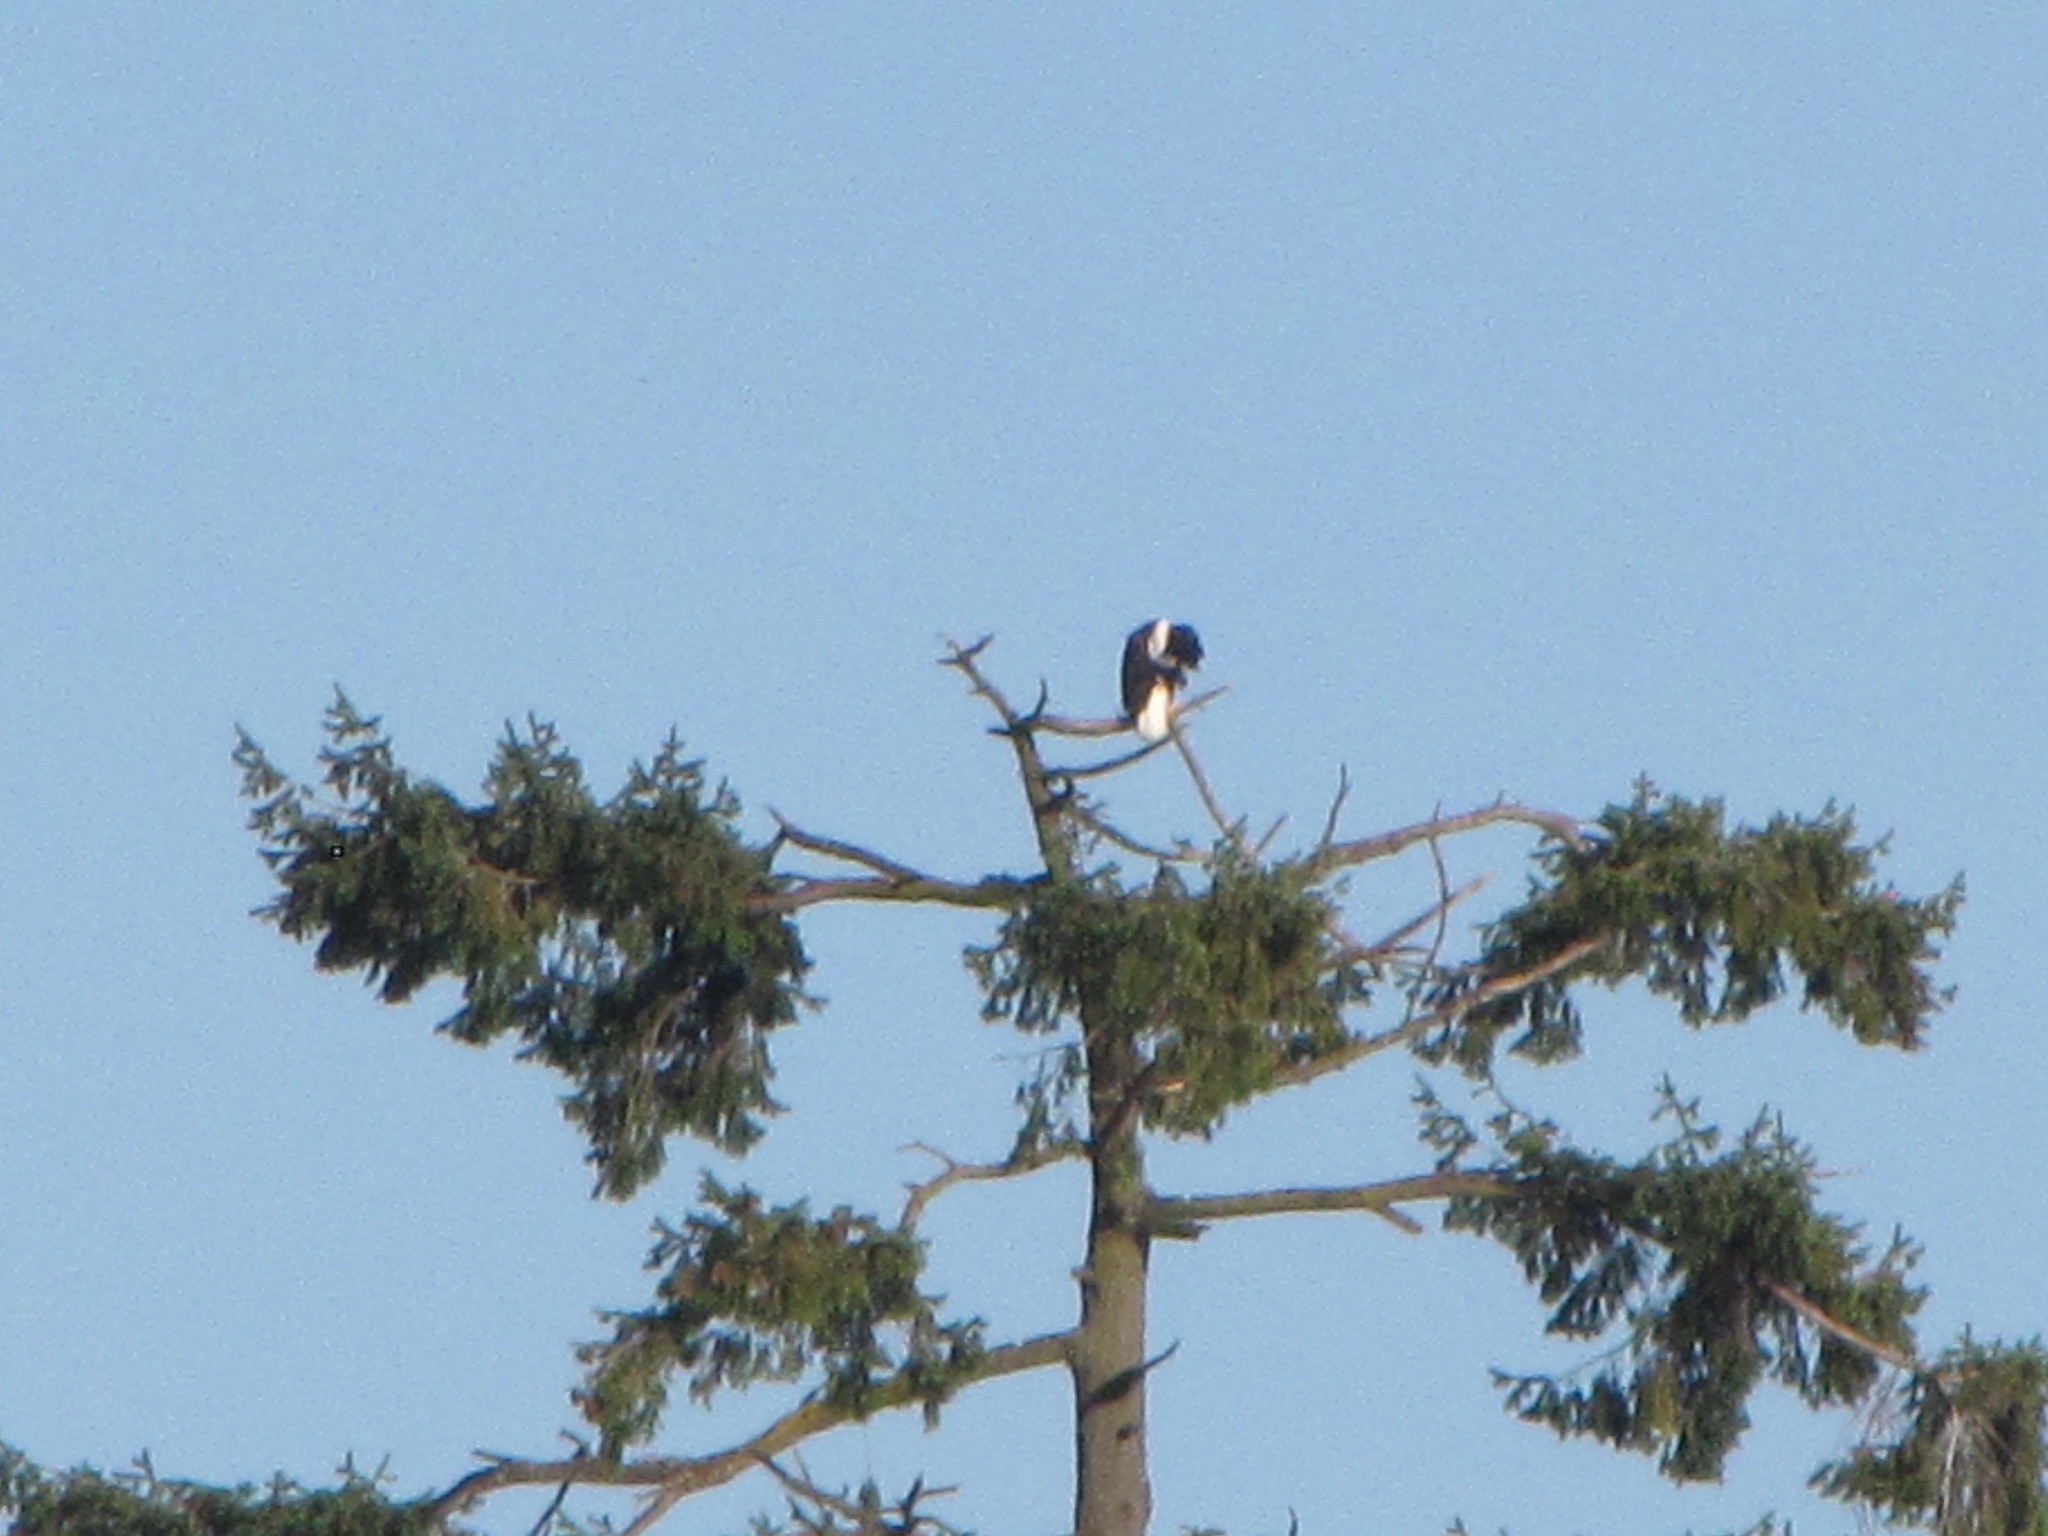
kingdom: Animalia
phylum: Chordata
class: Aves
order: Accipitriformes
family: Accipitridae
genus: Haliaeetus
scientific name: Haliaeetus leucocephalus
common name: Bald eagle
